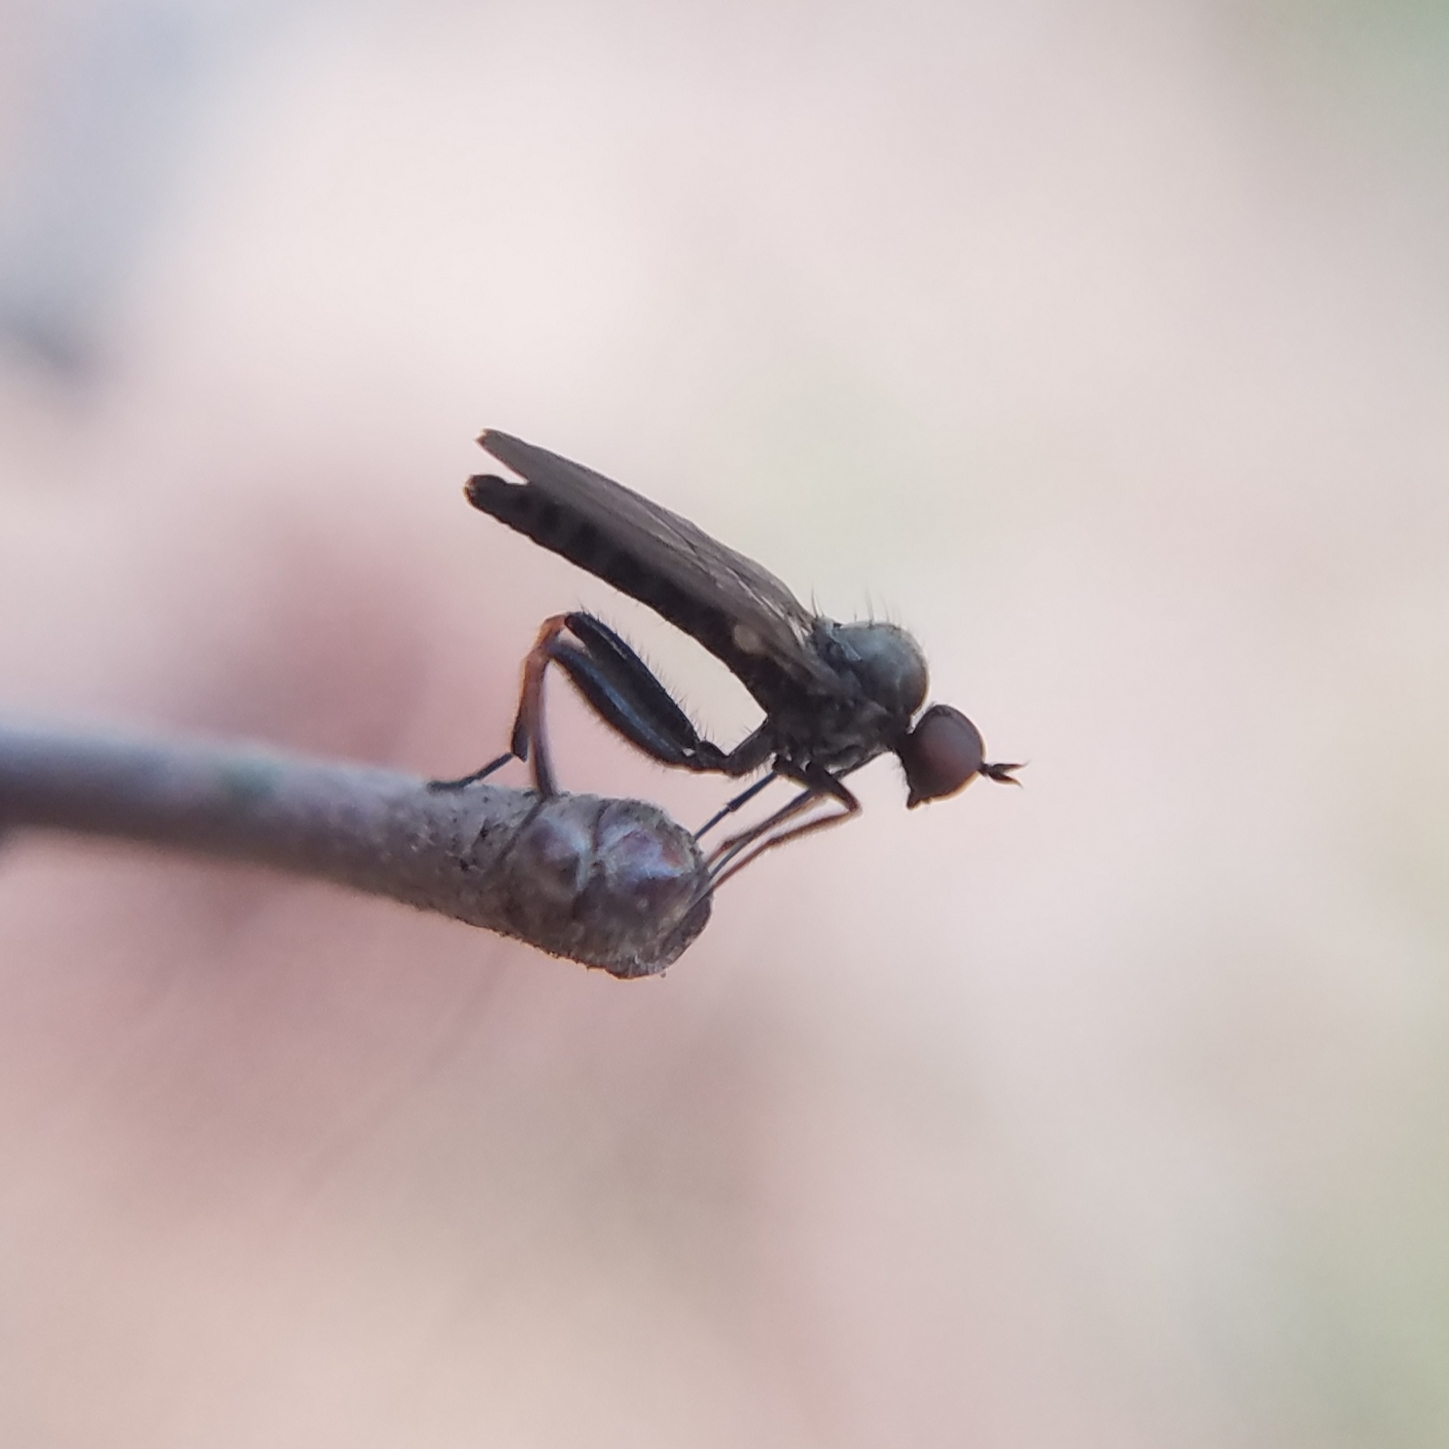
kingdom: Animalia
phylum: Arthropoda
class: Insecta
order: Diptera
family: Hybotidae
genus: Hoplocyrtoma
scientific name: Hoplocyrtoma femorata
